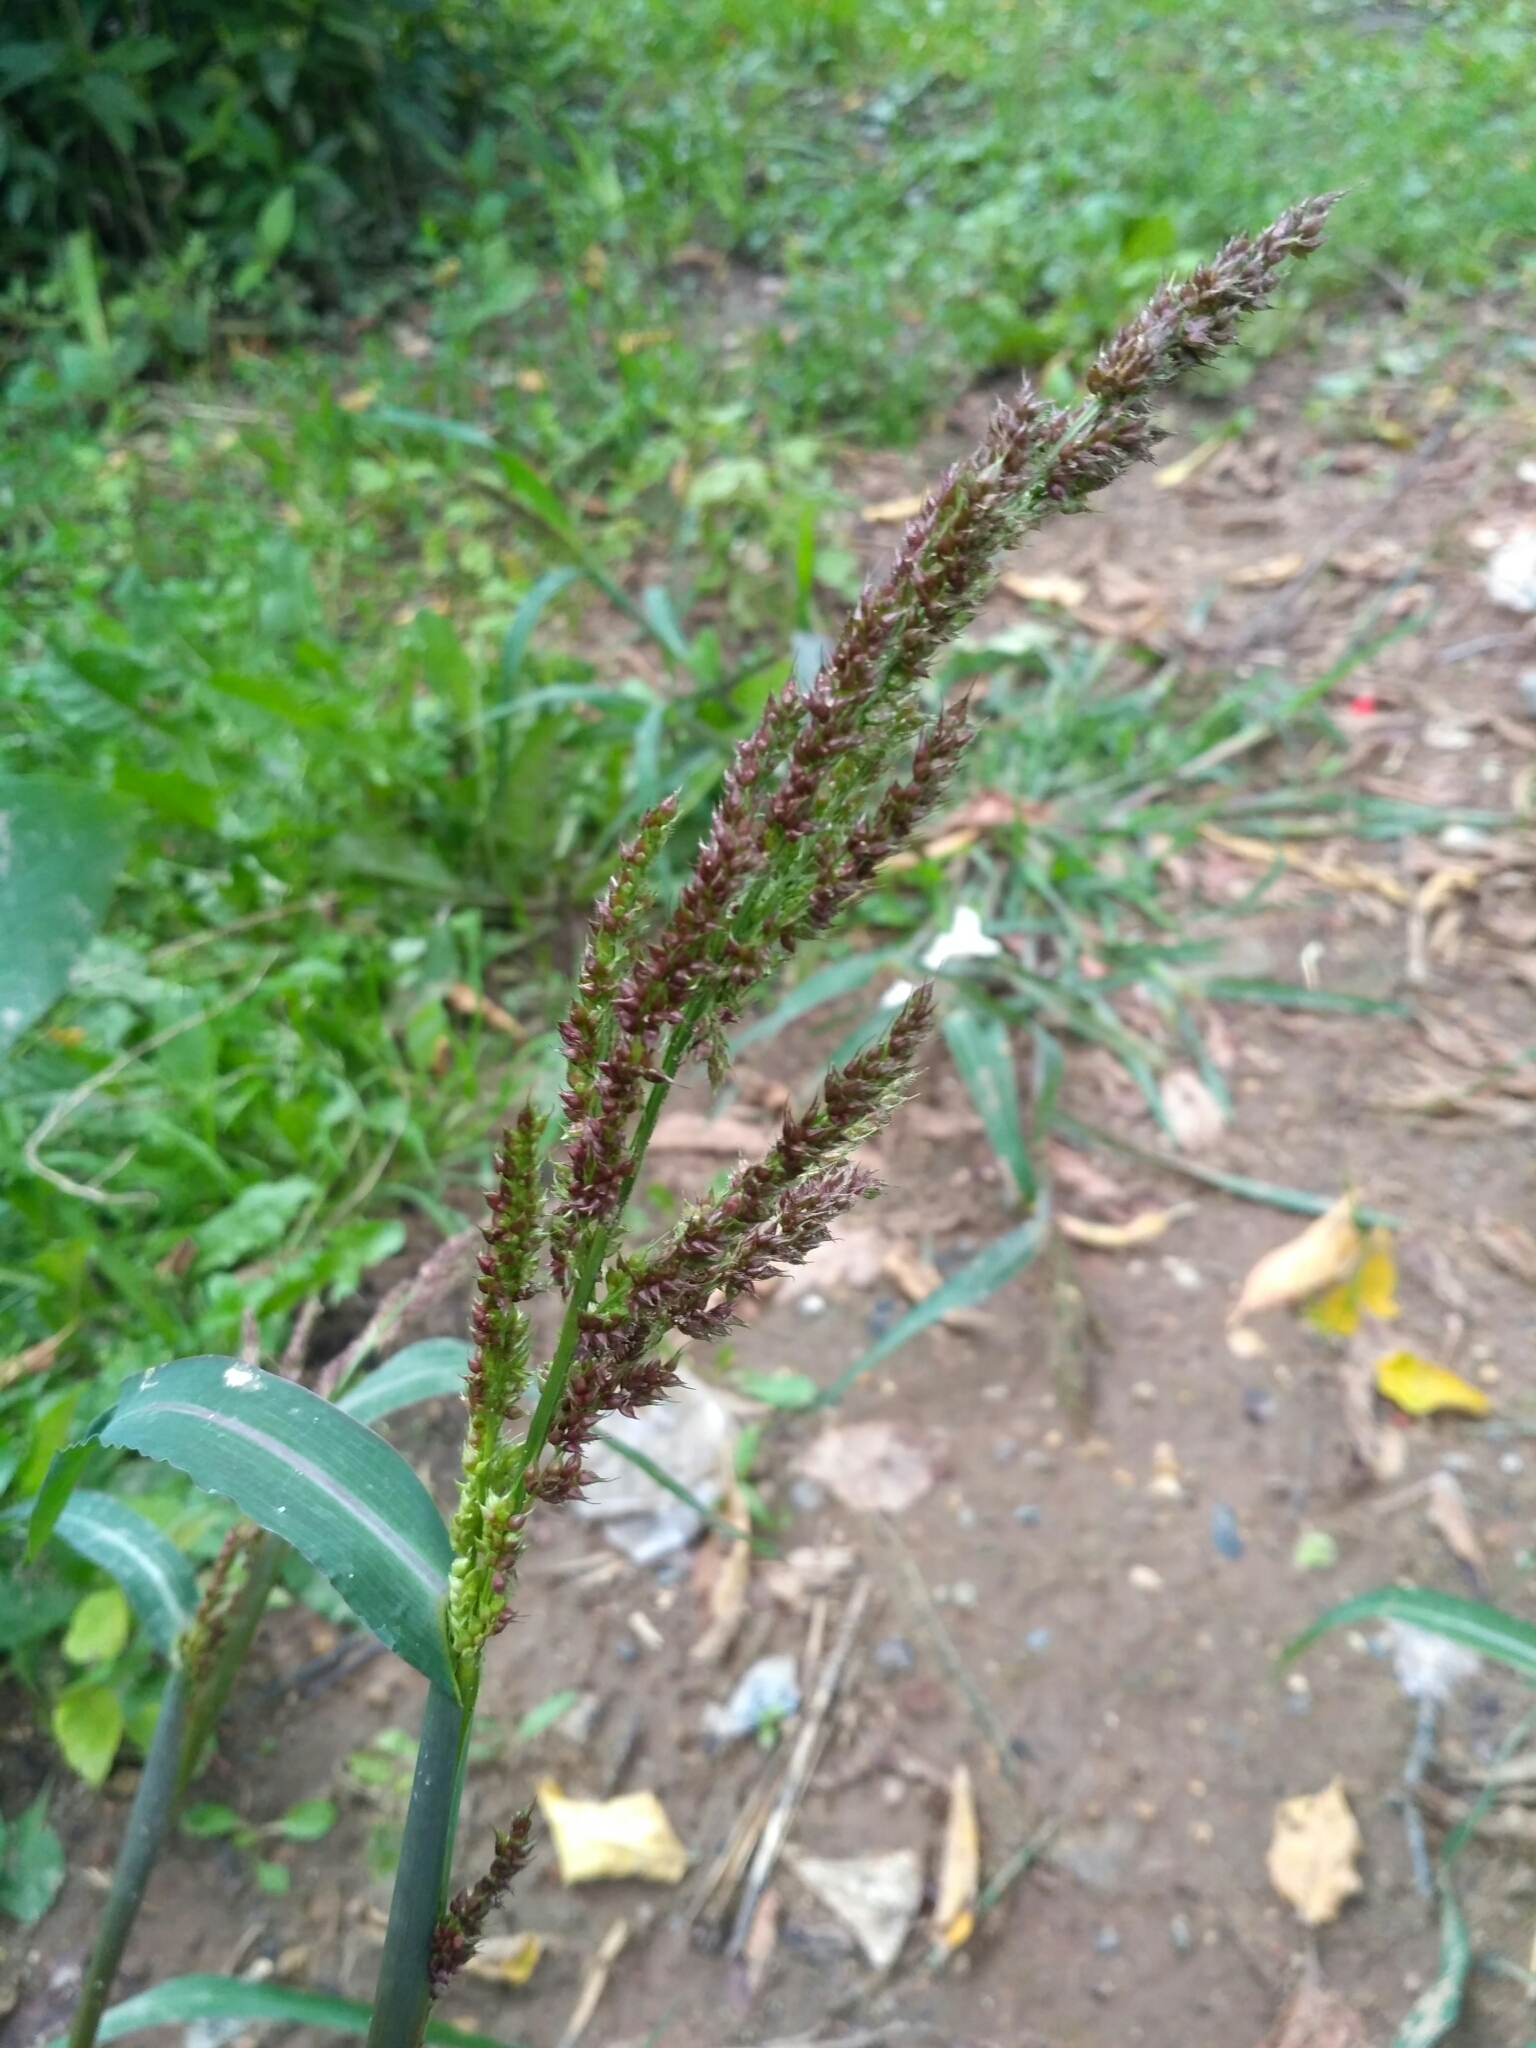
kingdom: Plantae
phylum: Tracheophyta
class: Liliopsida
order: Poales
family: Poaceae
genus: Echinochloa
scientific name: Echinochloa crus-galli
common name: Cockspur
